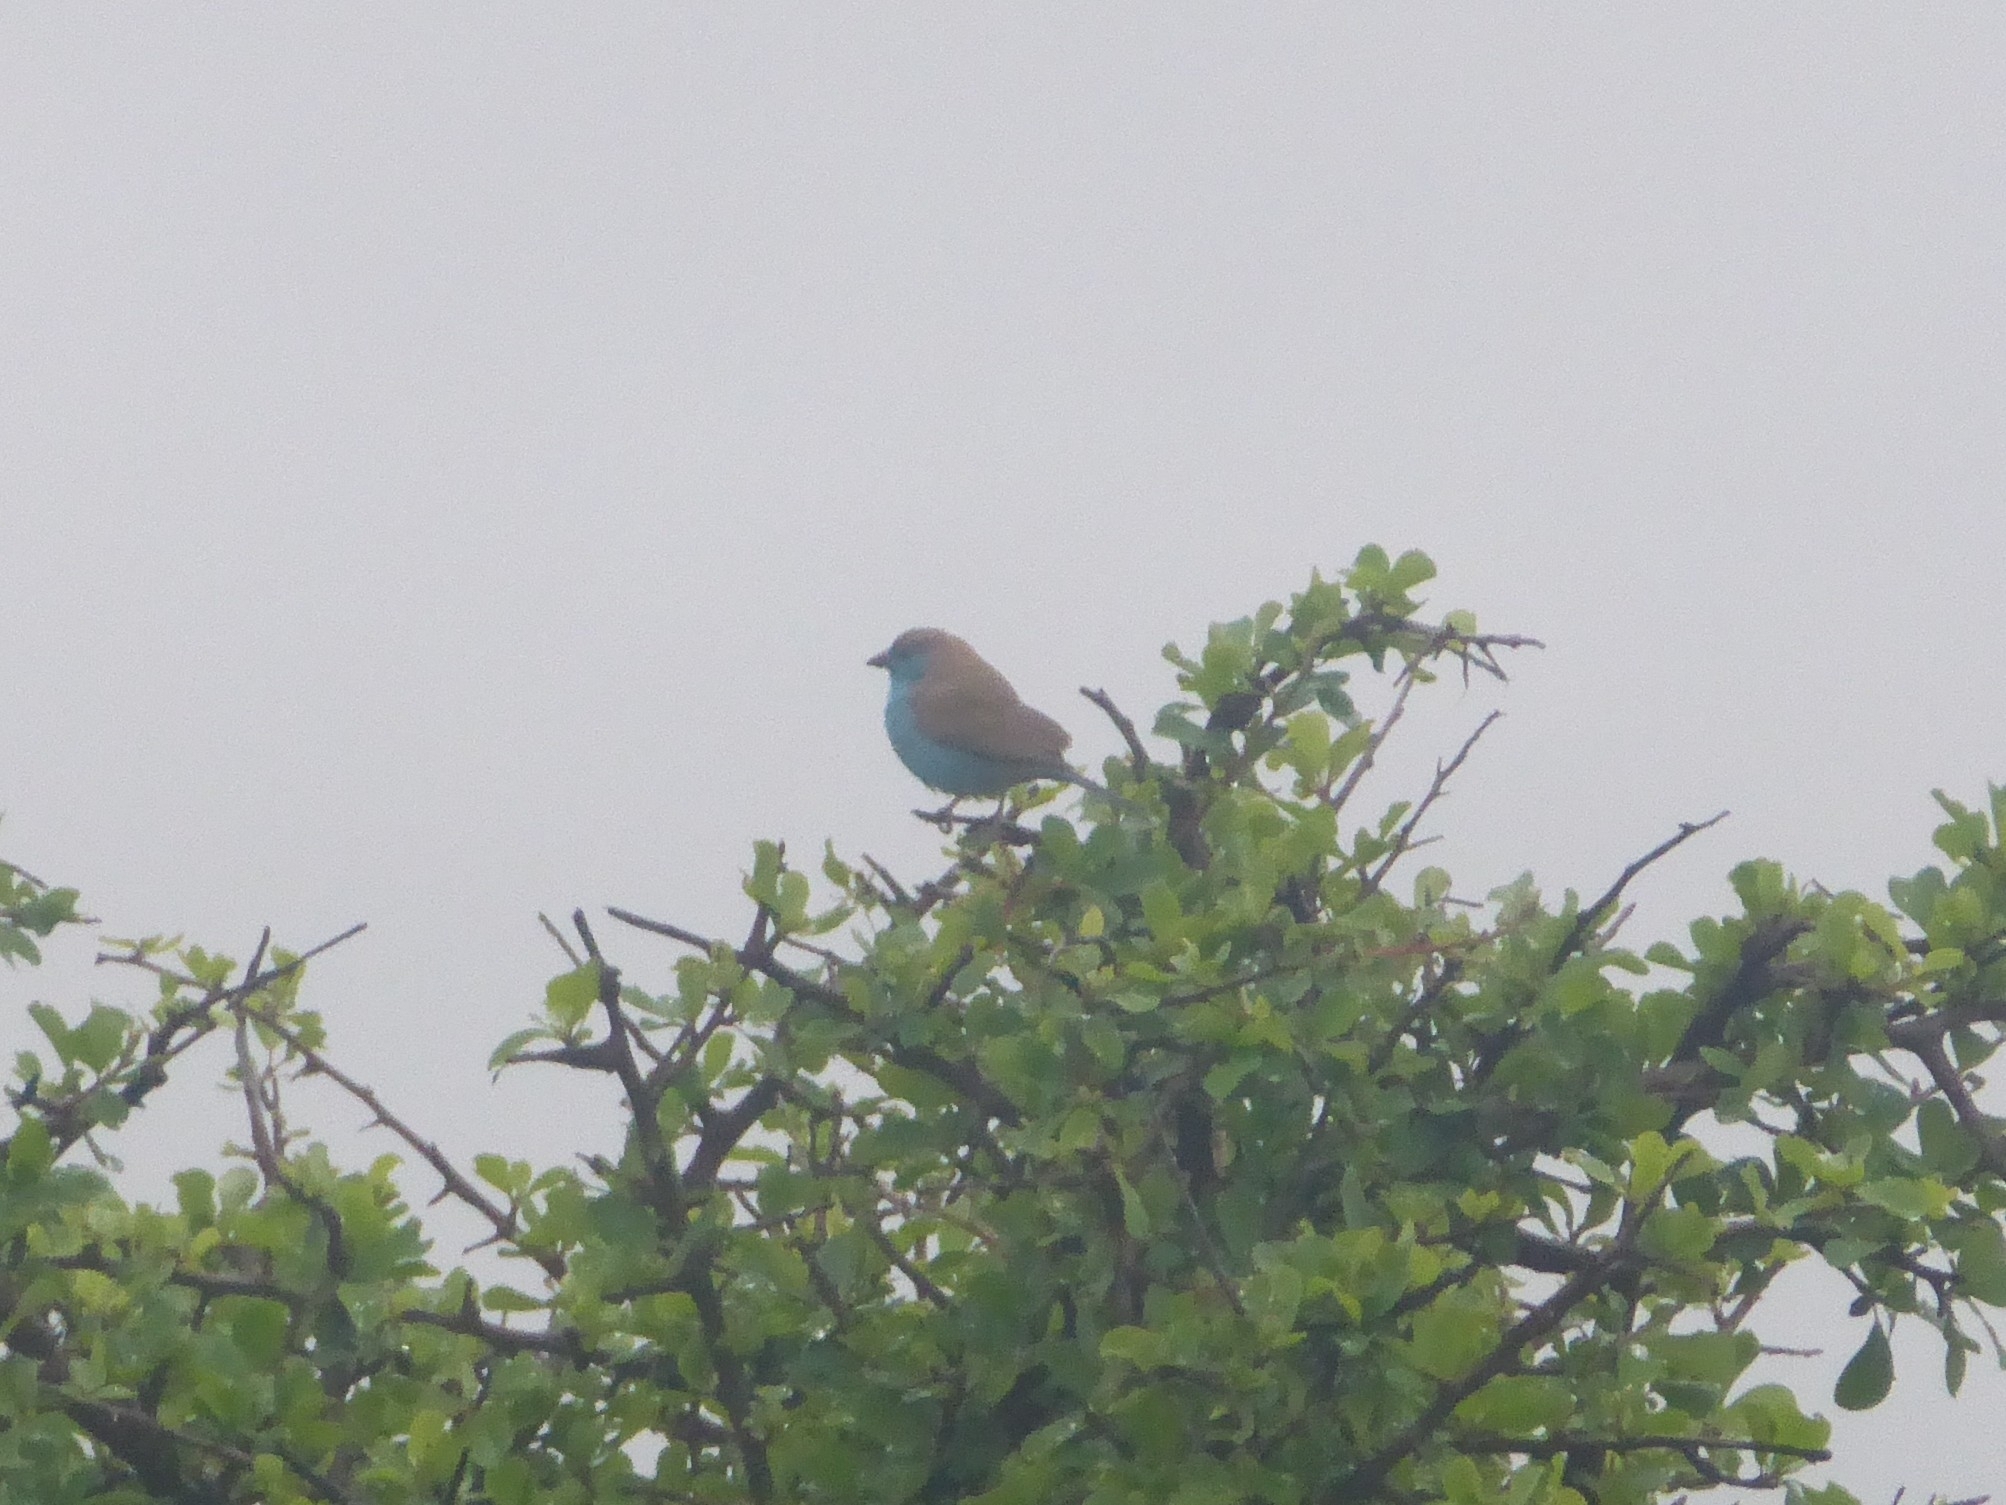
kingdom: Animalia
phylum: Chordata
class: Aves
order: Passeriformes
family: Estrildidae
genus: Uraeginthus
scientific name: Uraeginthus angolensis
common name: Blue waxbill
